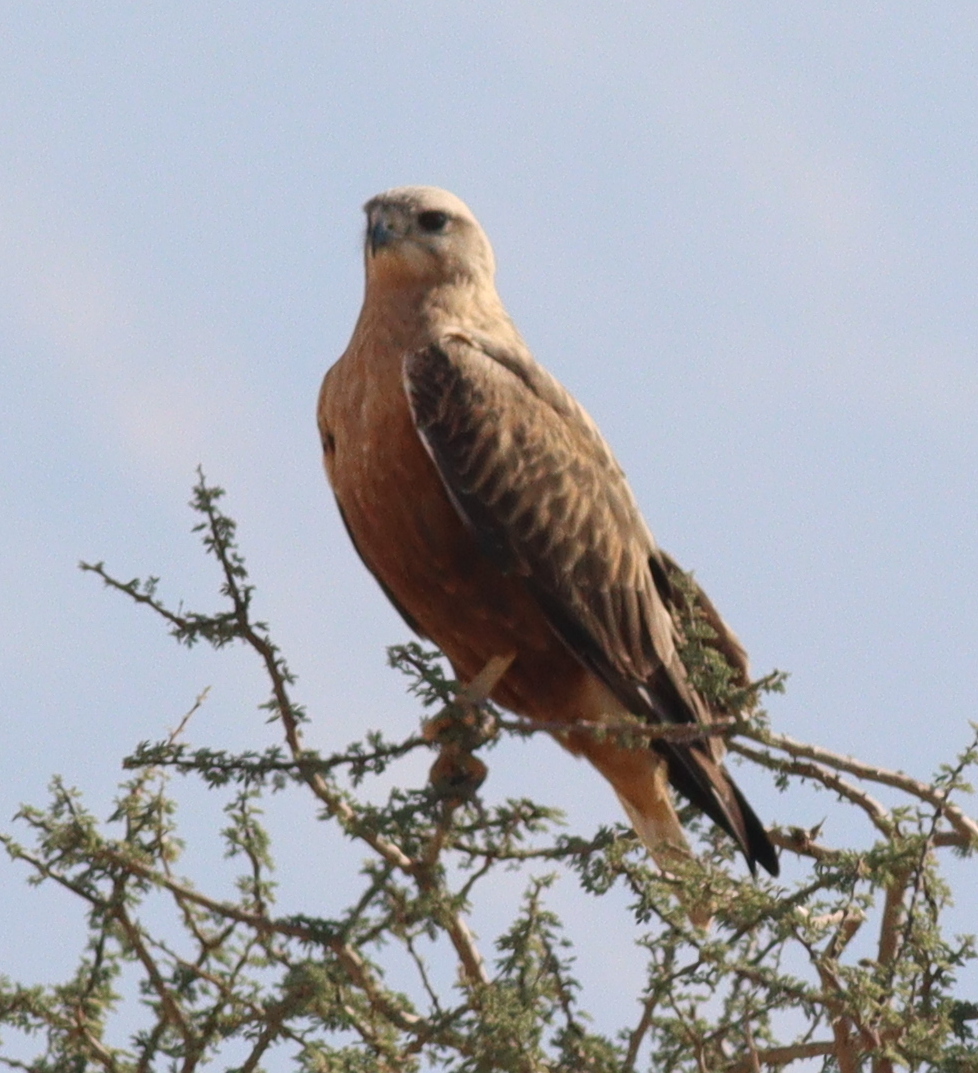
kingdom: Animalia
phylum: Chordata
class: Aves
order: Accipitriformes
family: Accipitridae
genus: Buteo
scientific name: Buteo rufinus
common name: Long-legged buzzard
